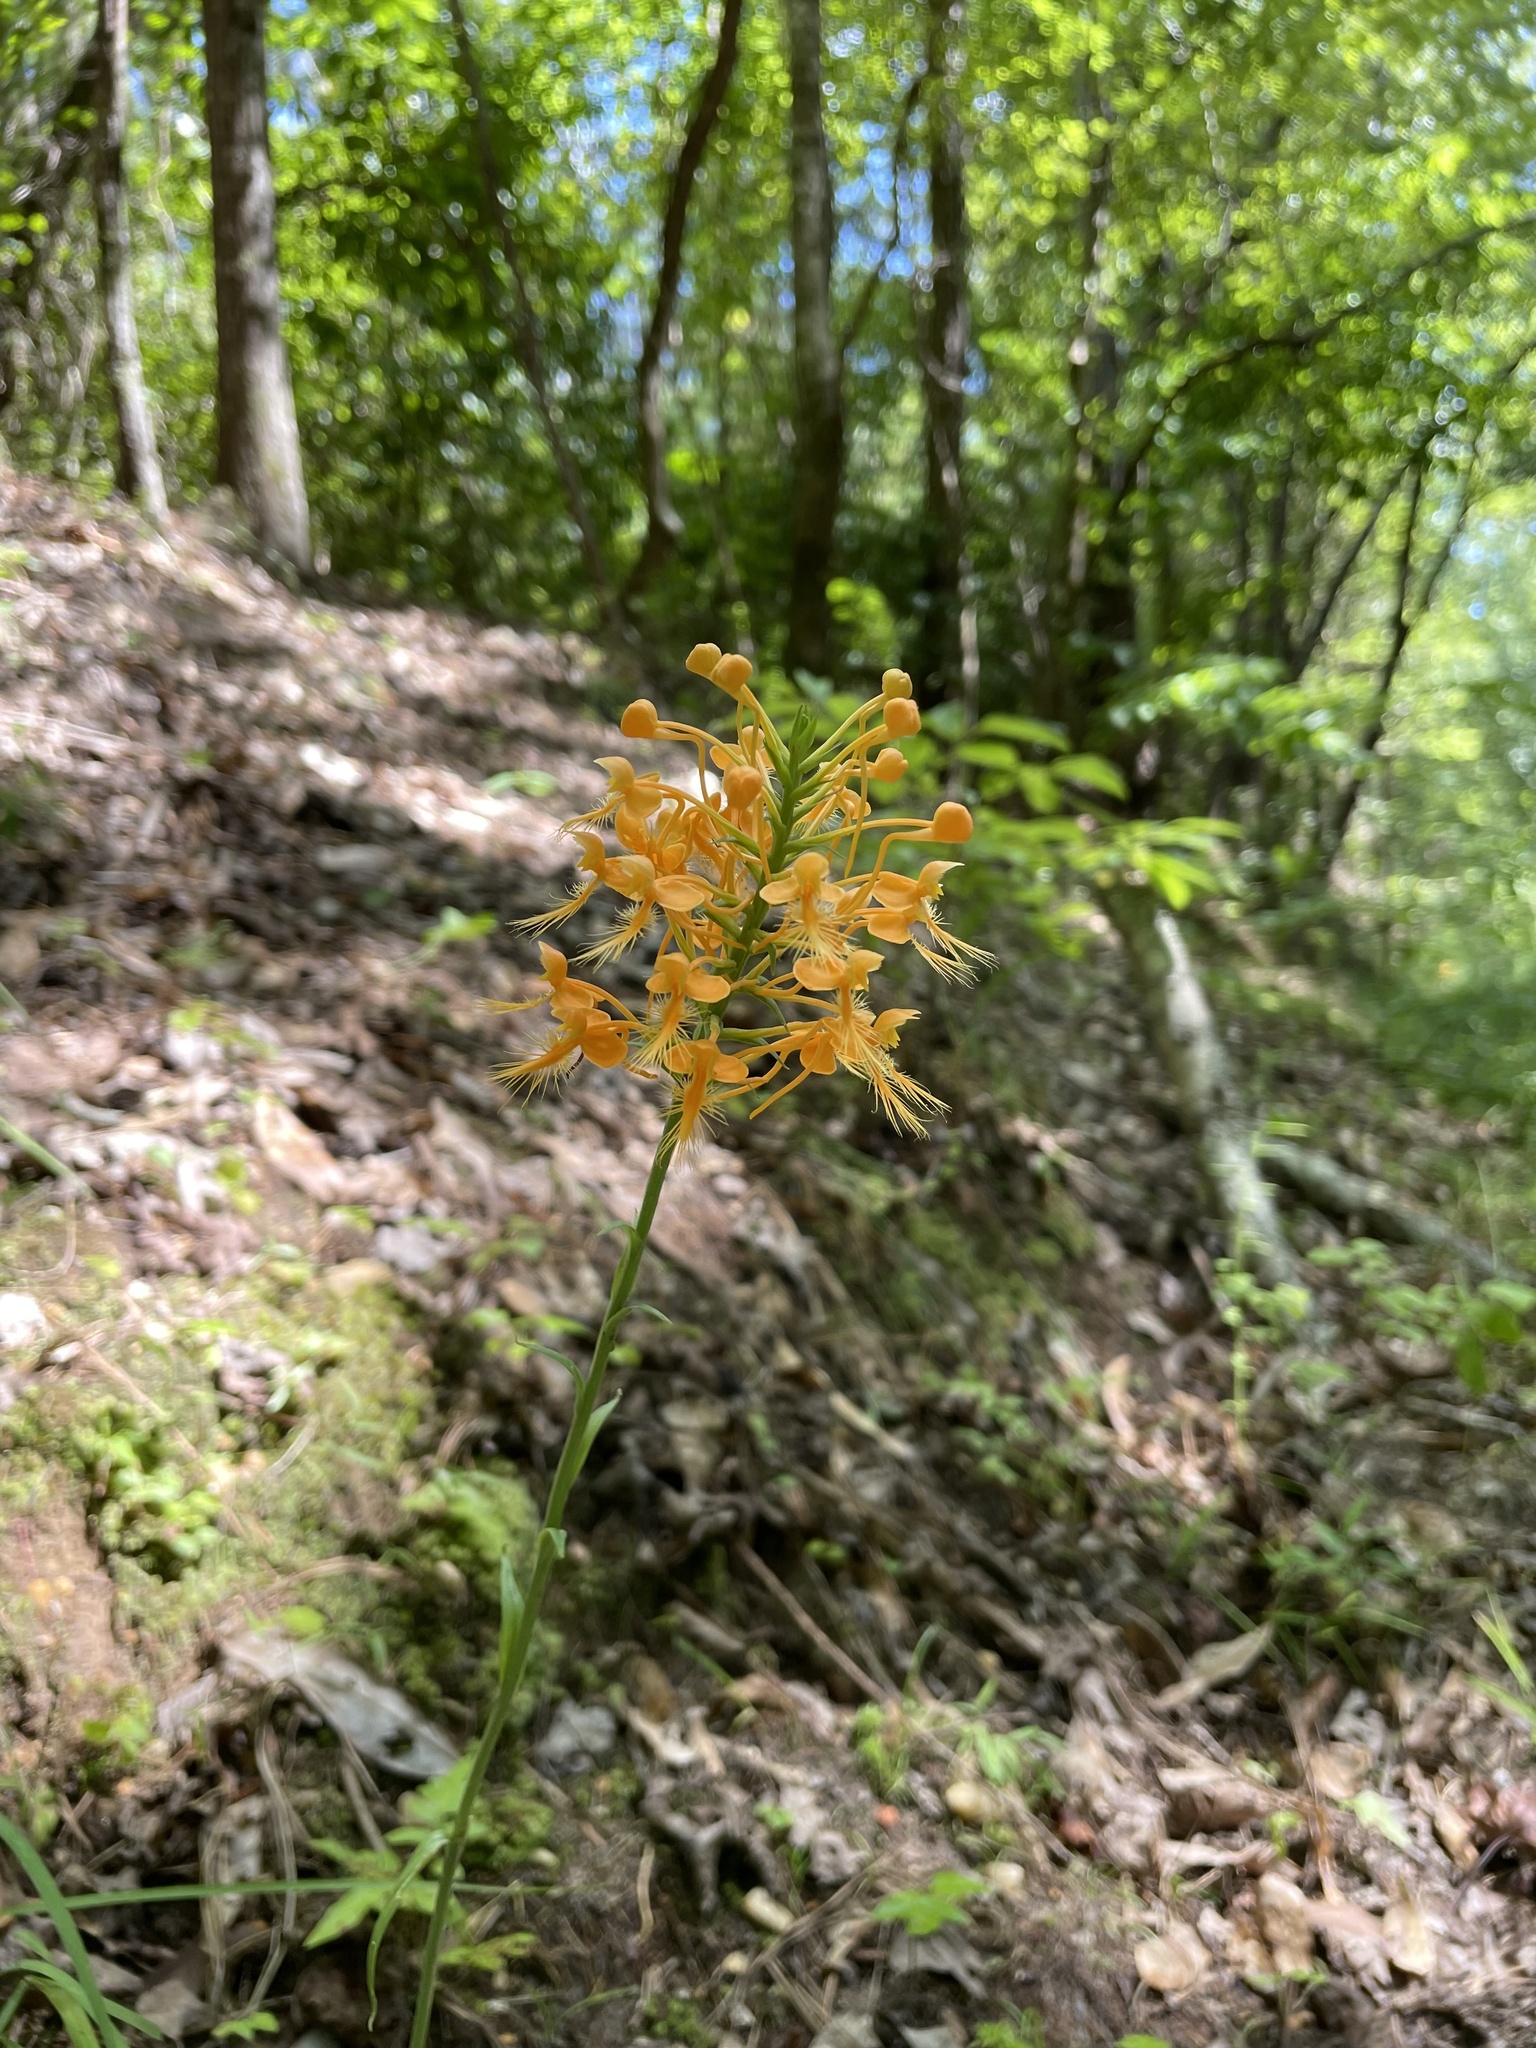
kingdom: Plantae
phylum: Tracheophyta
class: Liliopsida
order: Asparagales
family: Orchidaceae
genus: Platanthera
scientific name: Platanthera ciliaris
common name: Yellow fringed orchid
